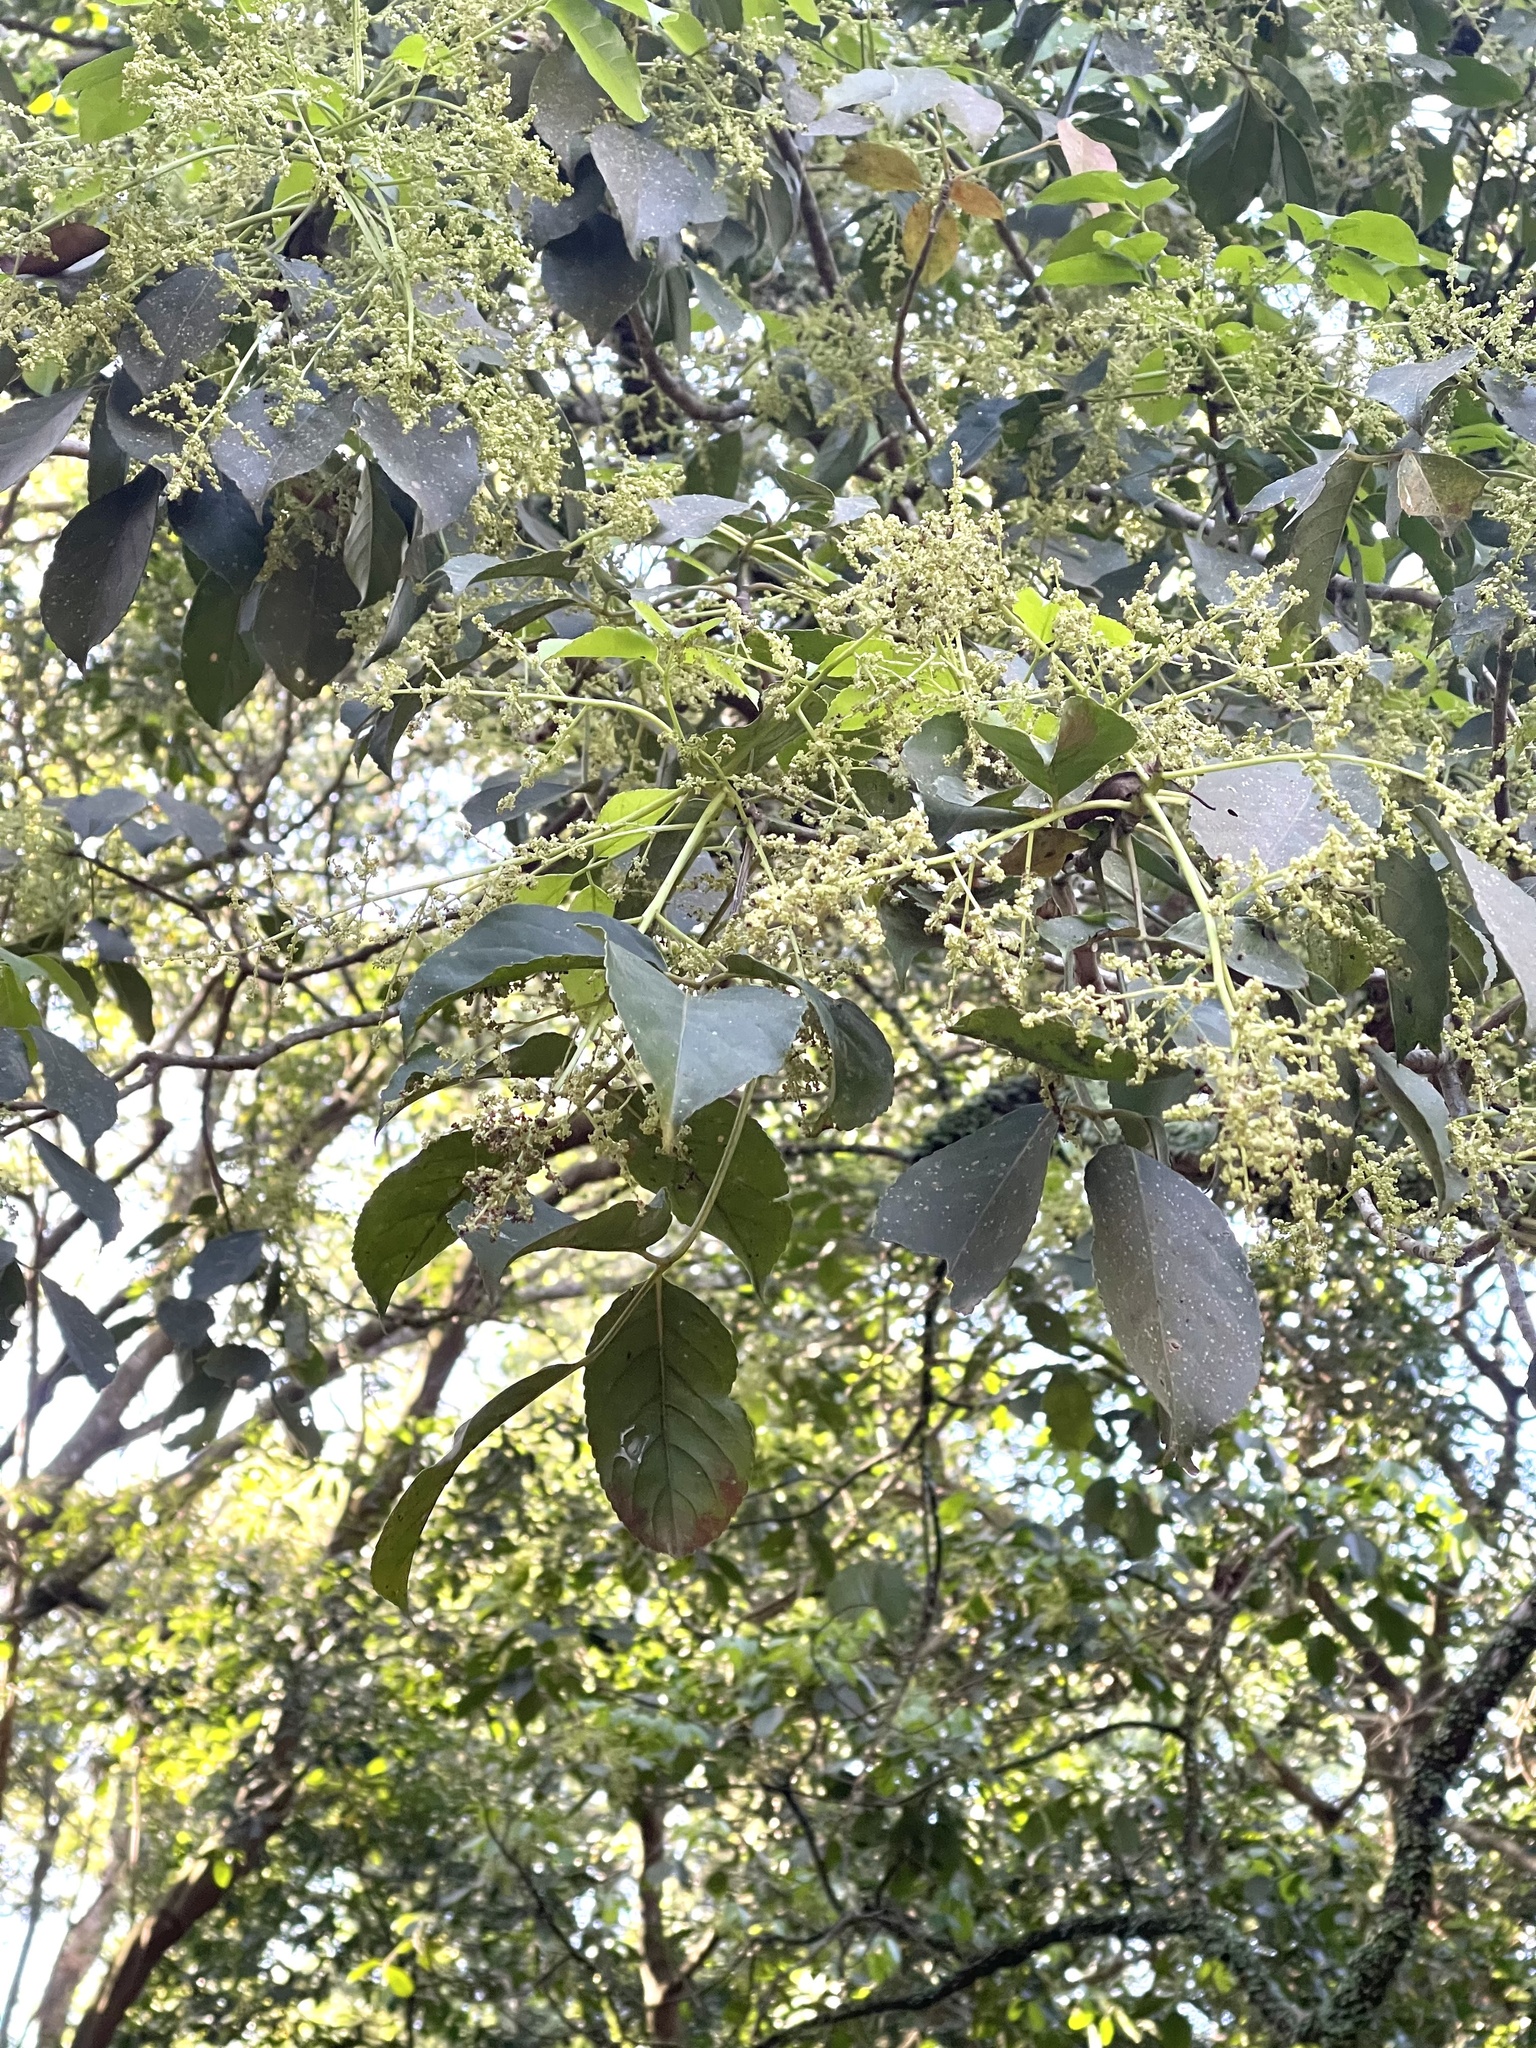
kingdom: Plantae
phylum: Tracheophyta
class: Magnoliopsida
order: Malpighiales
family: Phyllanthaceae
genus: Bischofia
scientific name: Bischofia javanica
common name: Javanese bishopwood
